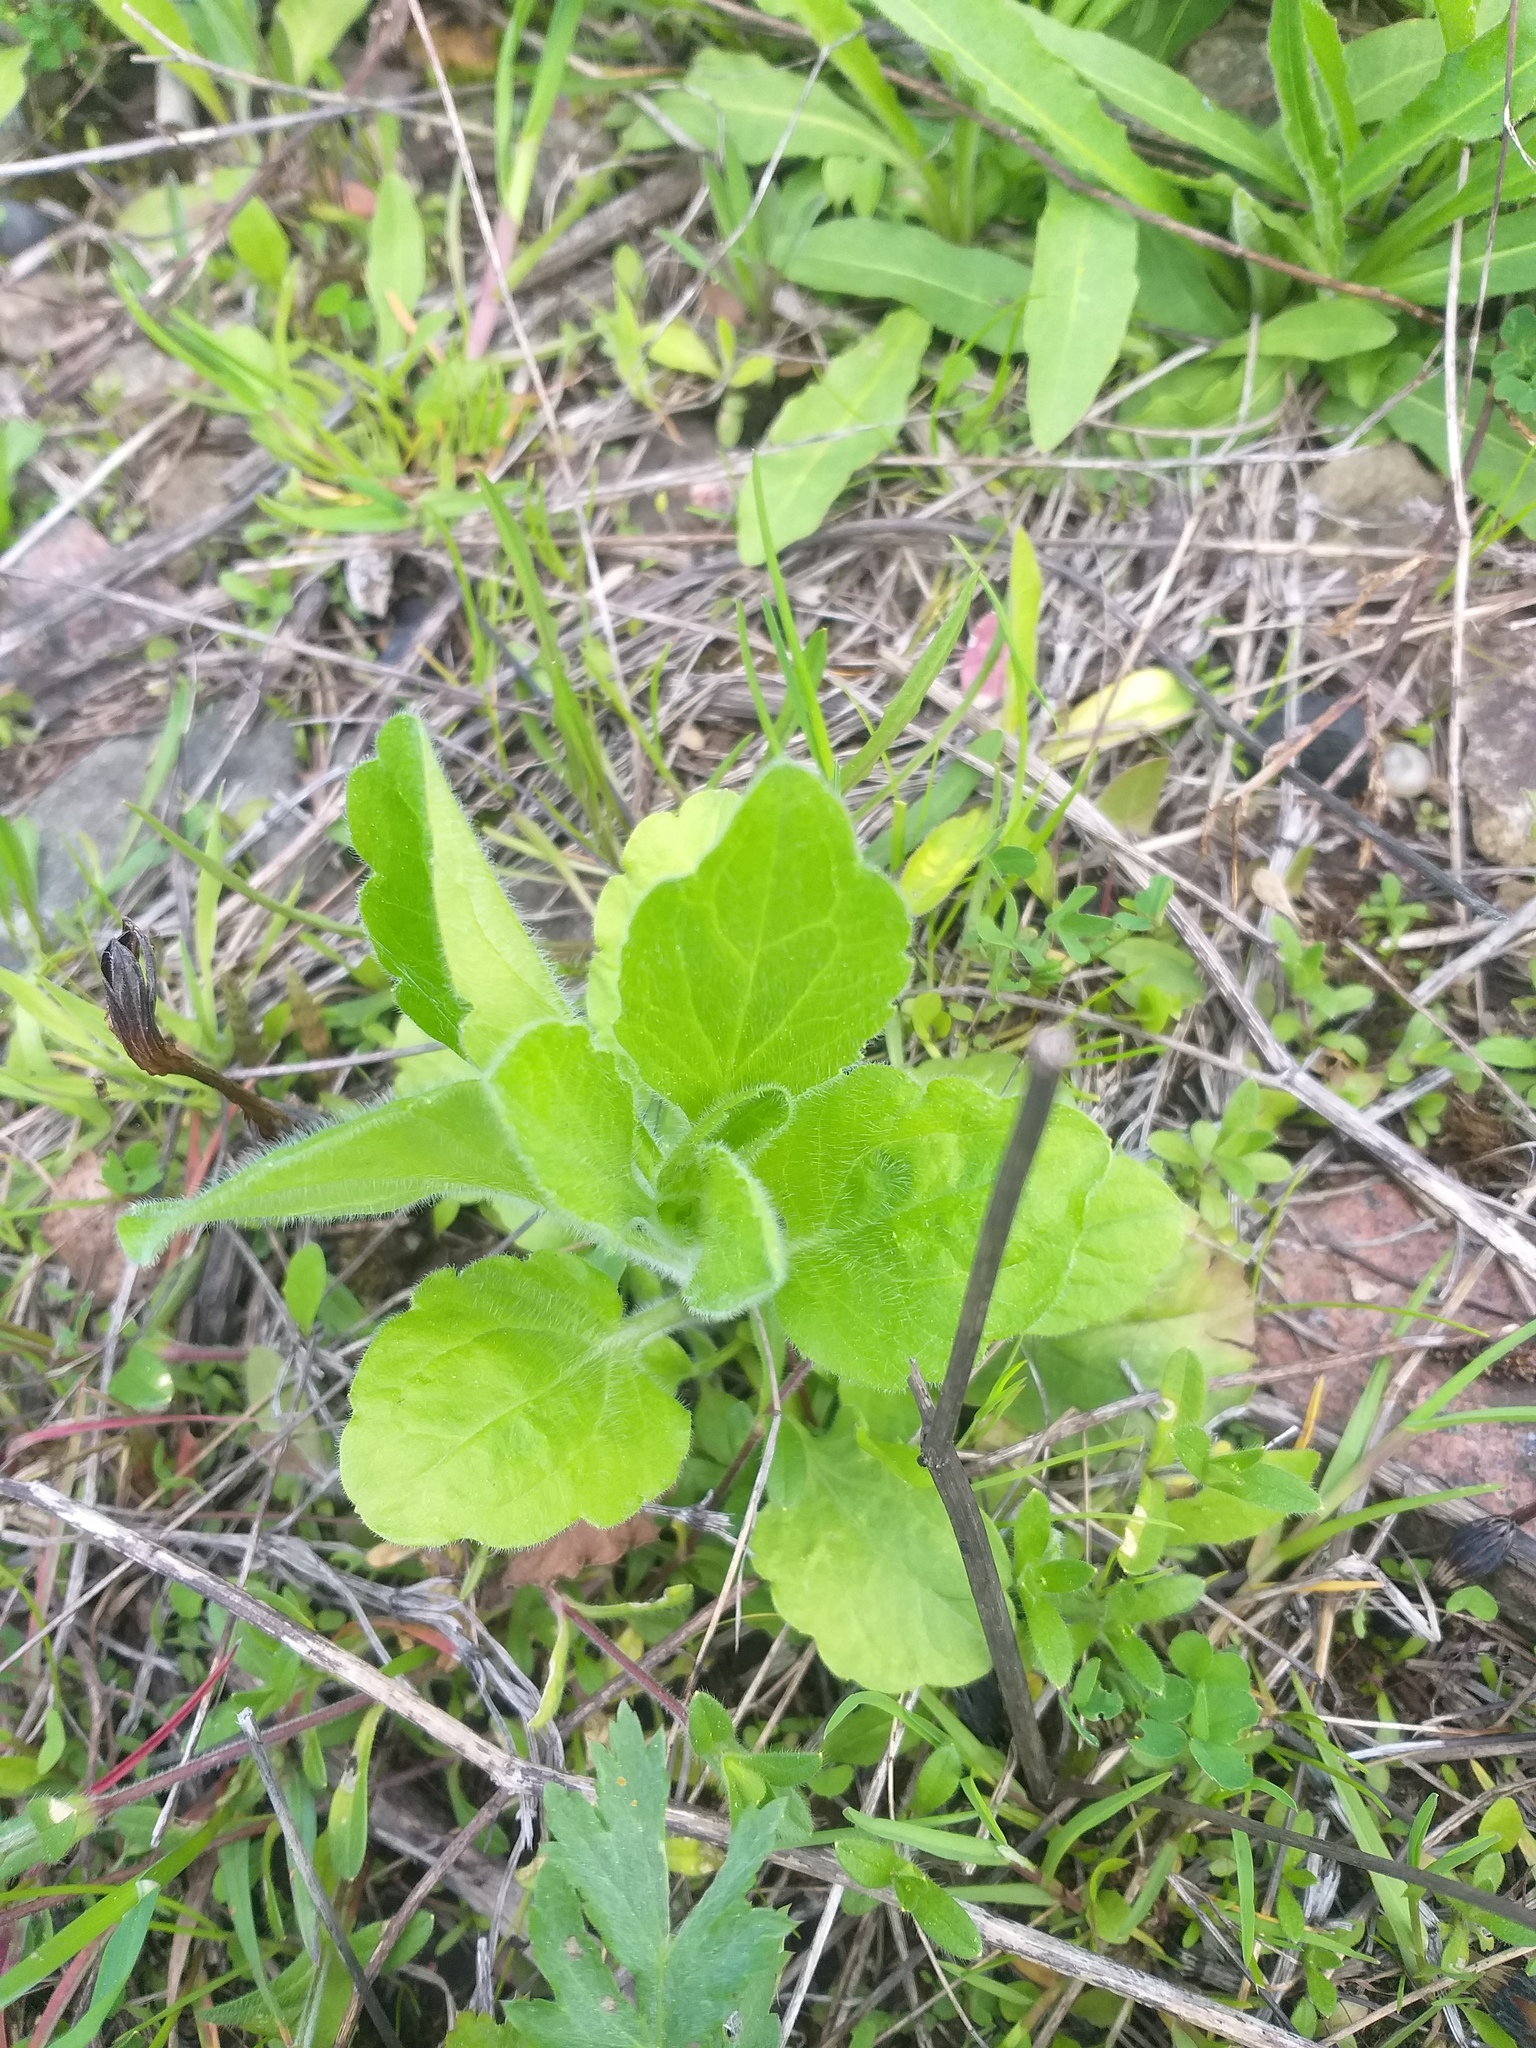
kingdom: Plantae
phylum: Tracheophyta
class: Magnoliopsida
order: Asterales
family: Asteraceae
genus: Erigeron
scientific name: Erigeron annuus
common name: Tall fleabane
